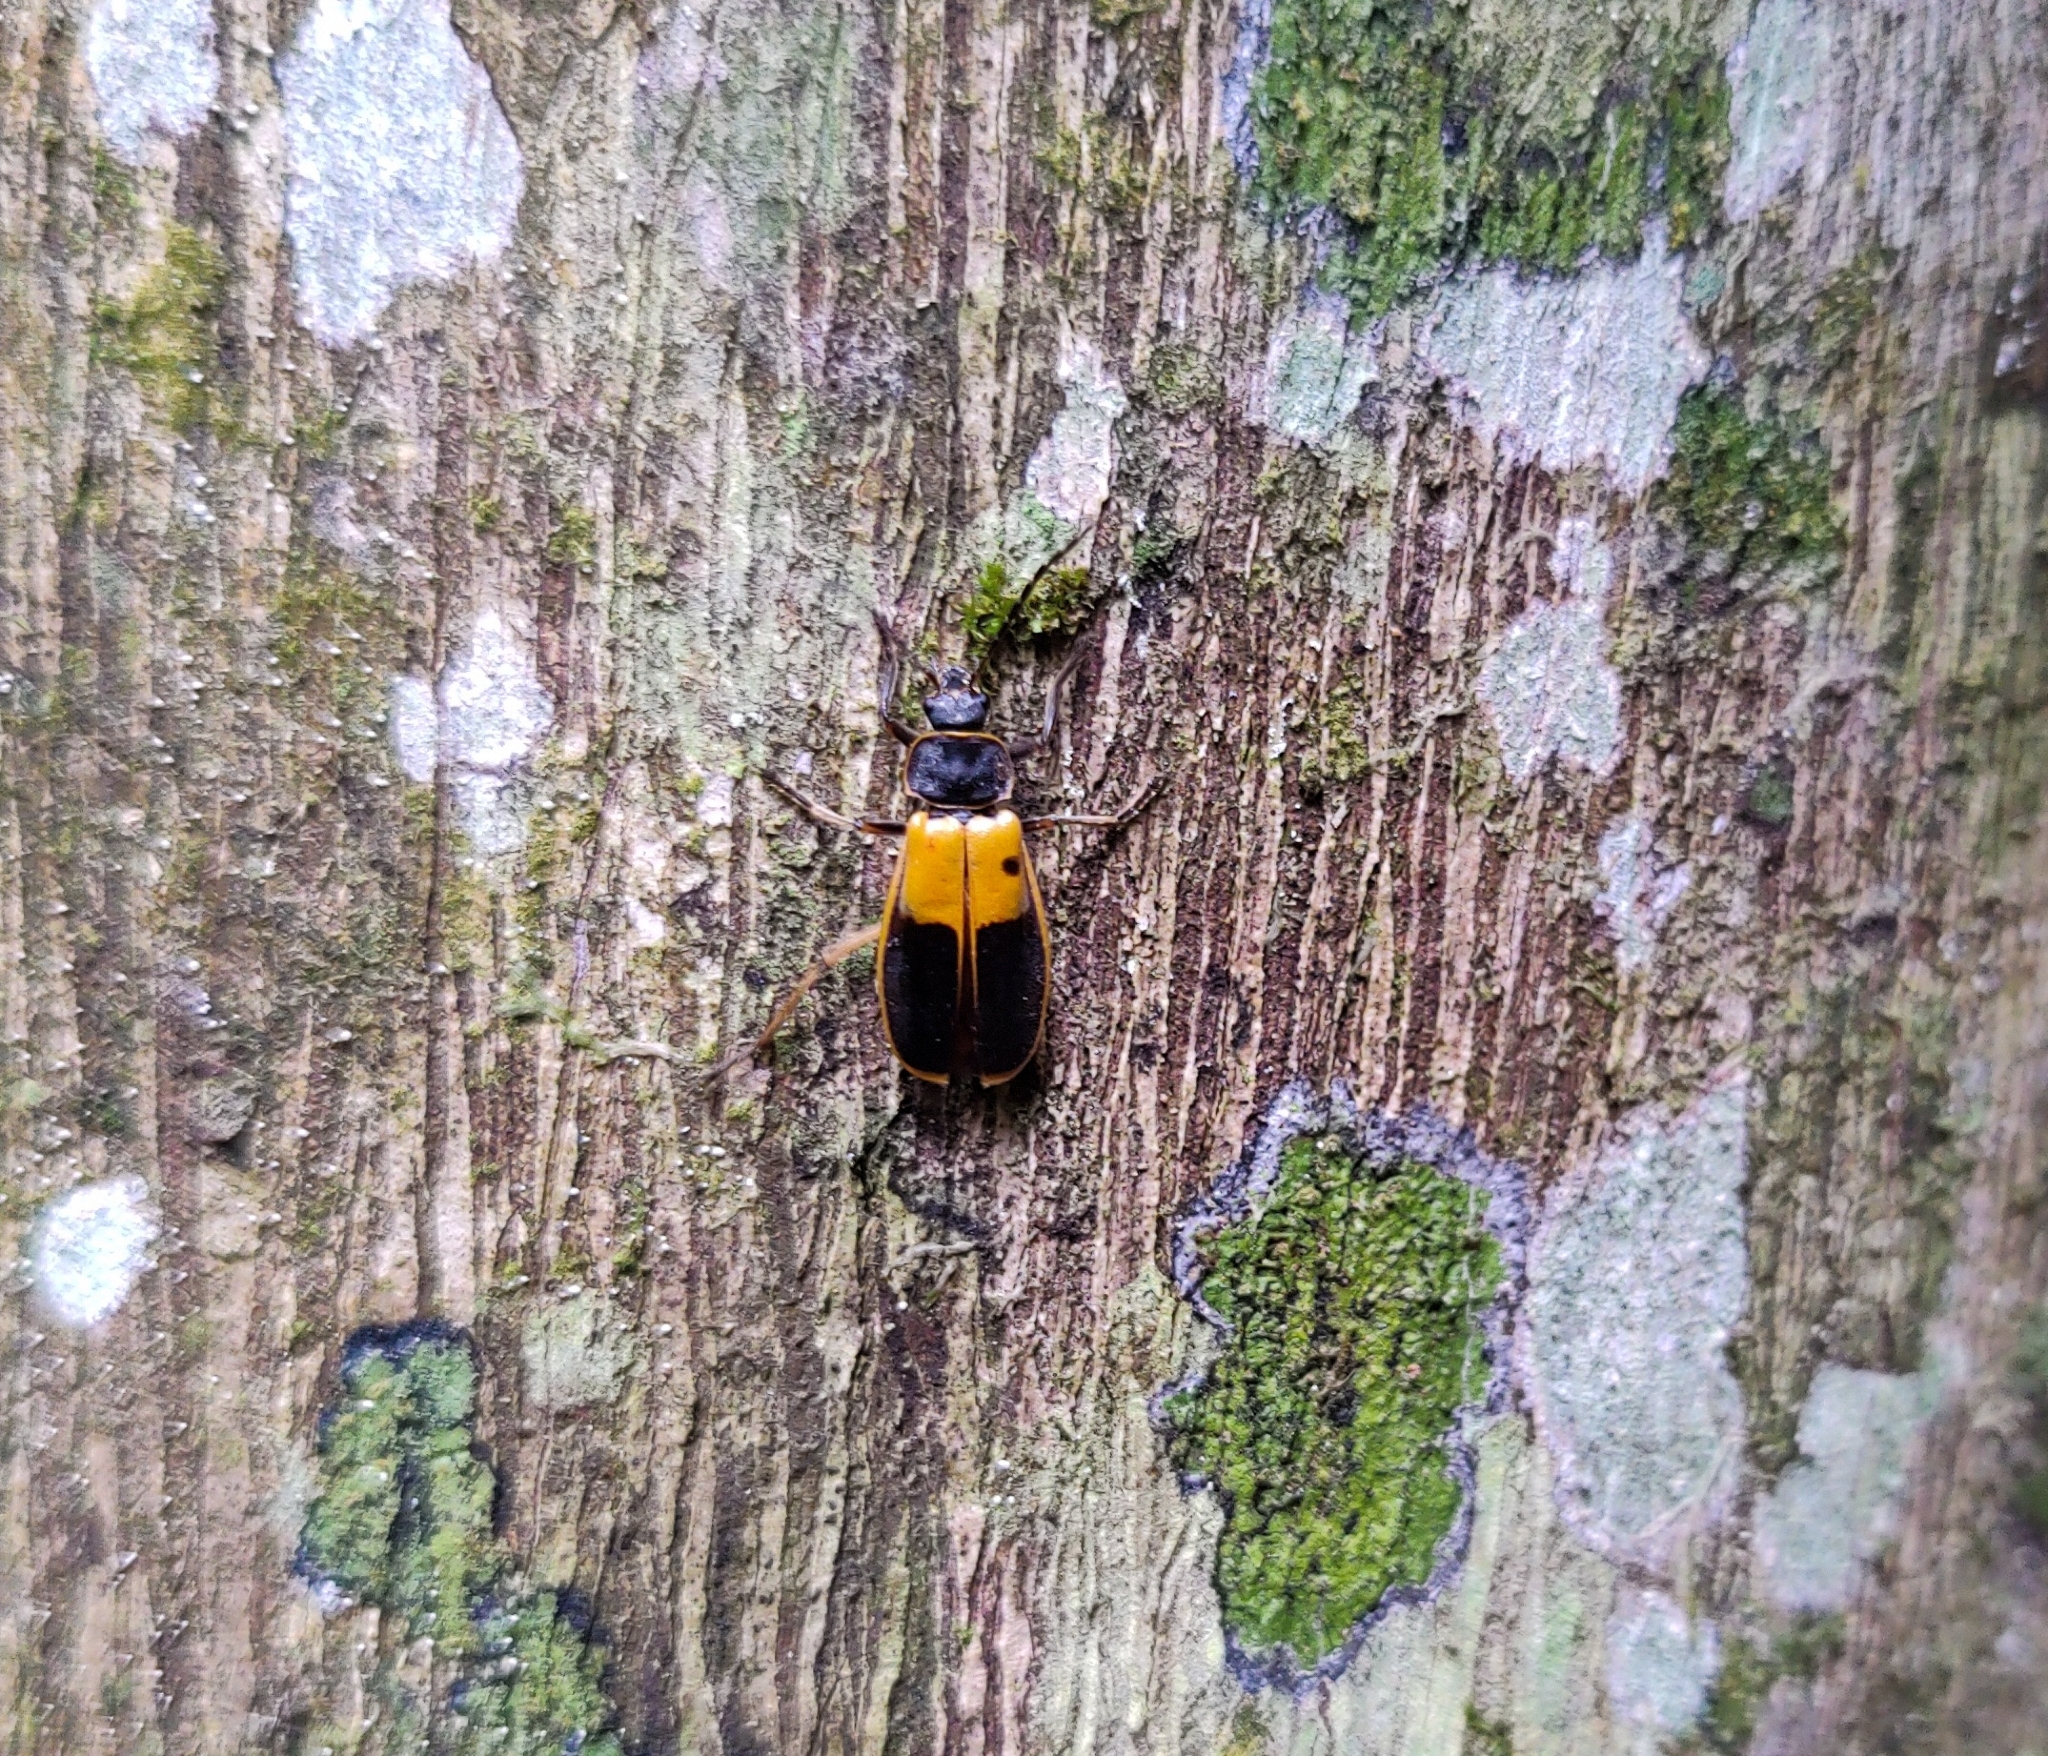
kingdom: Animalia
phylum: Arthropoda
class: Insecta
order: Coleoptera
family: Cantharidae
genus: Chauliognathus
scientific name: Chauliognathus
